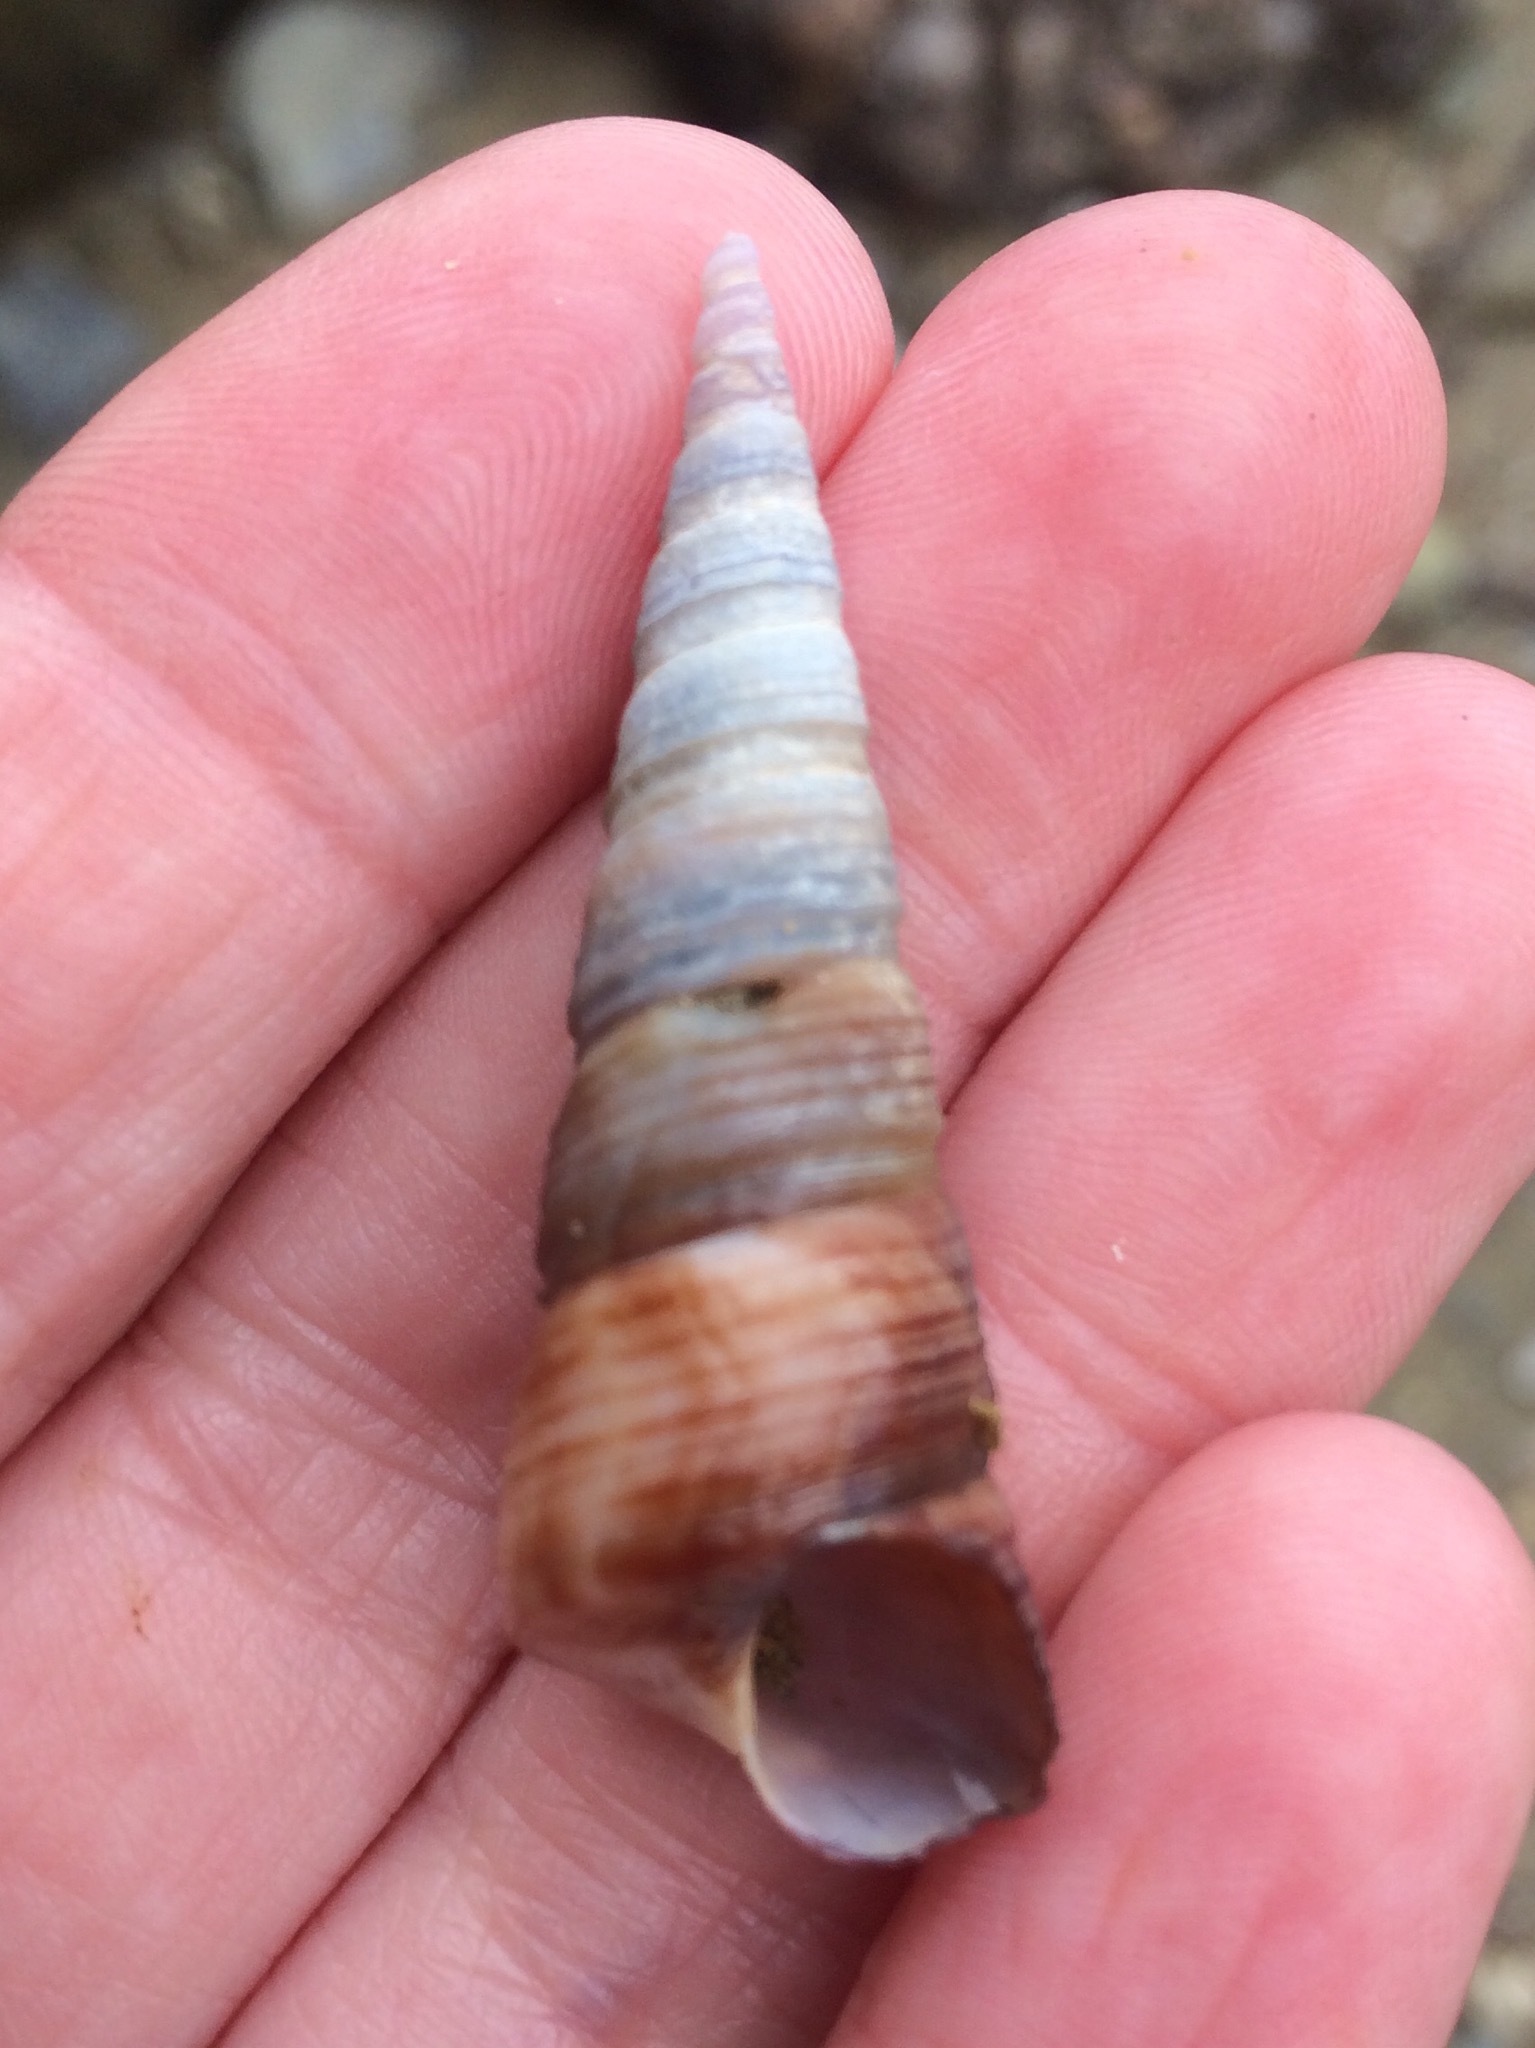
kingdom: Animalia
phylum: Mollusca
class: Gastropoda
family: Turritellidae
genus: Maoricolpus
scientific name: Maoricolpus roseus
